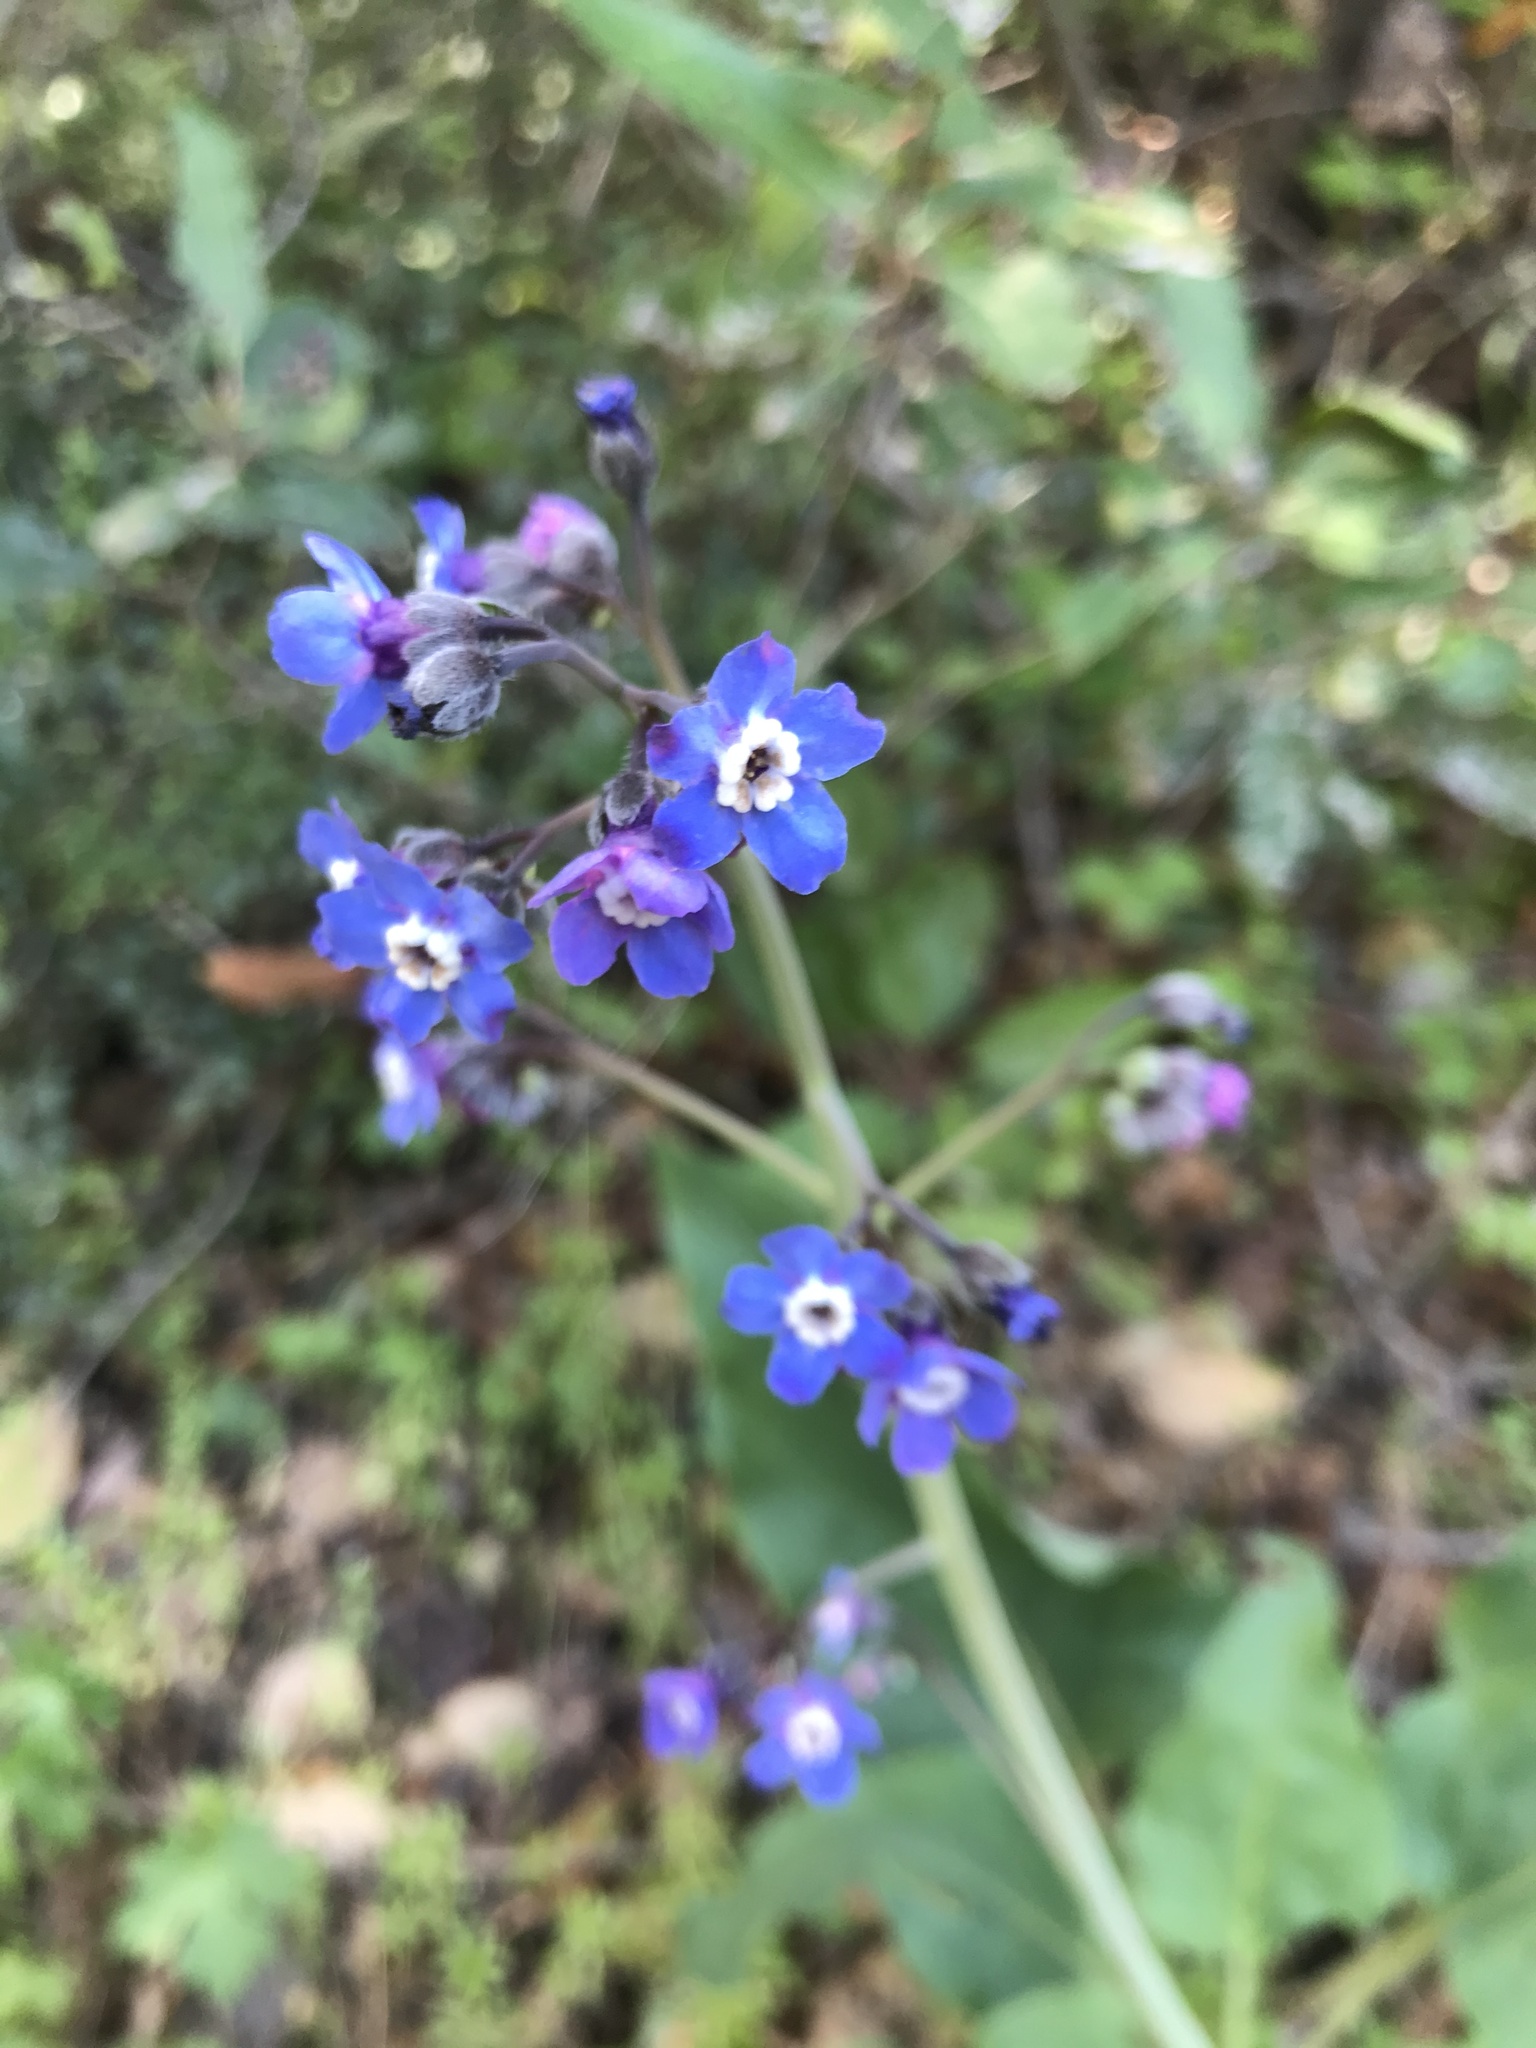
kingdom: Plantae
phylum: Tracheophyta
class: Magnoliopsida
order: Boraginales
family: Boraginaceae
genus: Adelinia
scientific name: Adelinia grande
